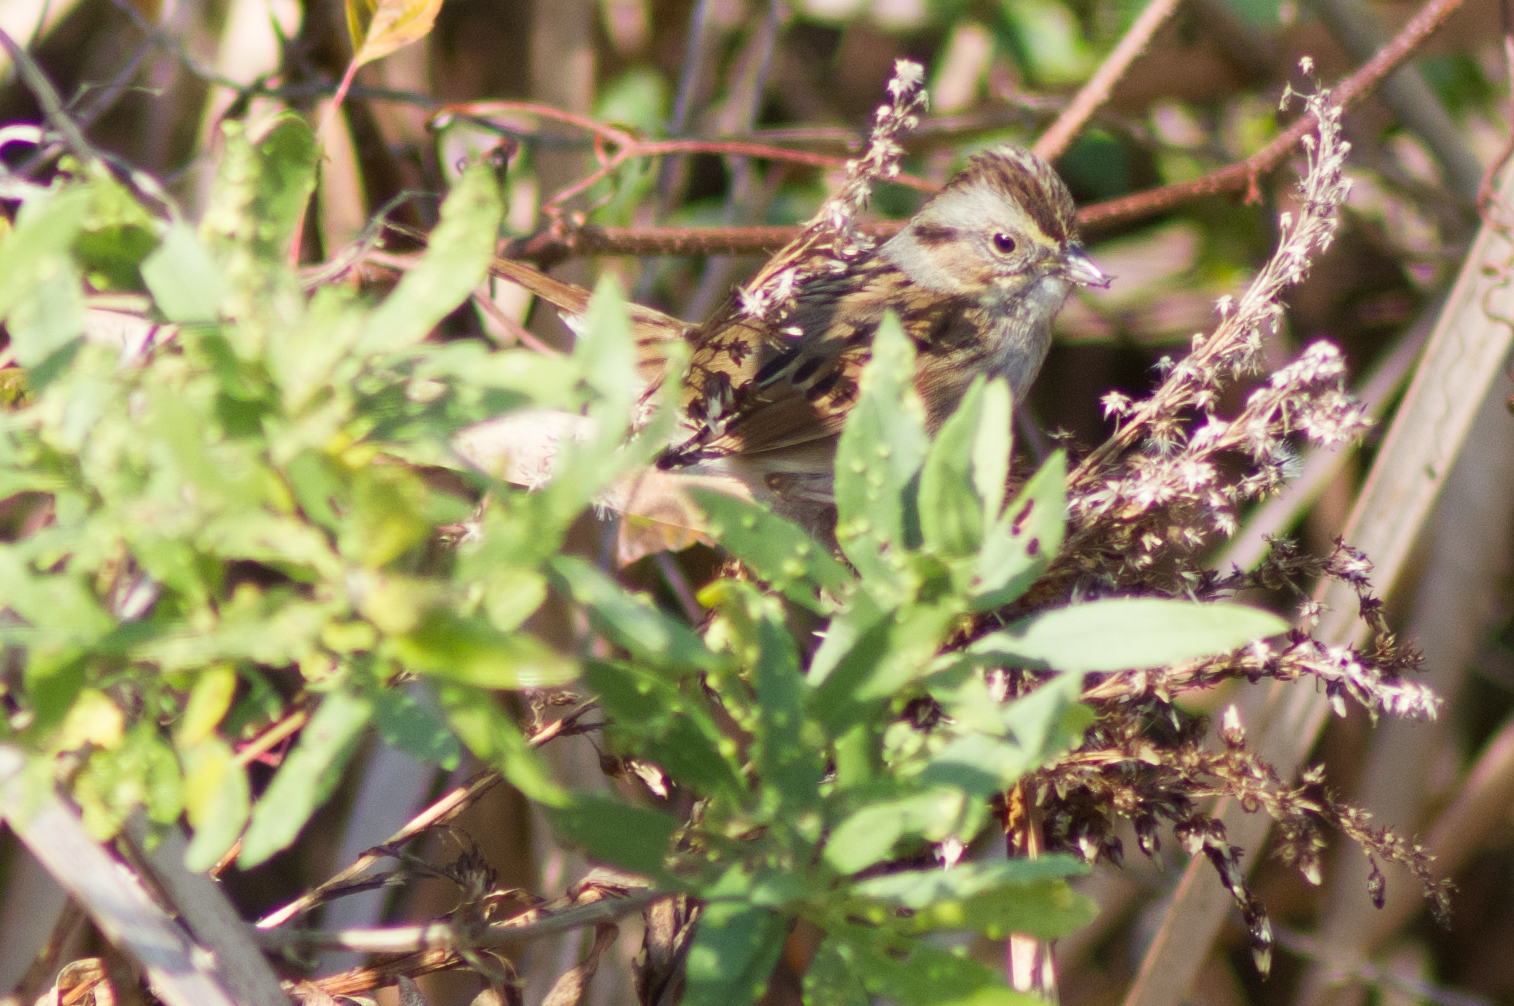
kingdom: Animalia
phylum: Chordata
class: Aves
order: Passeriformes
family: Passerellidae
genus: Melospiza
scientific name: Melospiza georgiana
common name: Swamp sparrow
